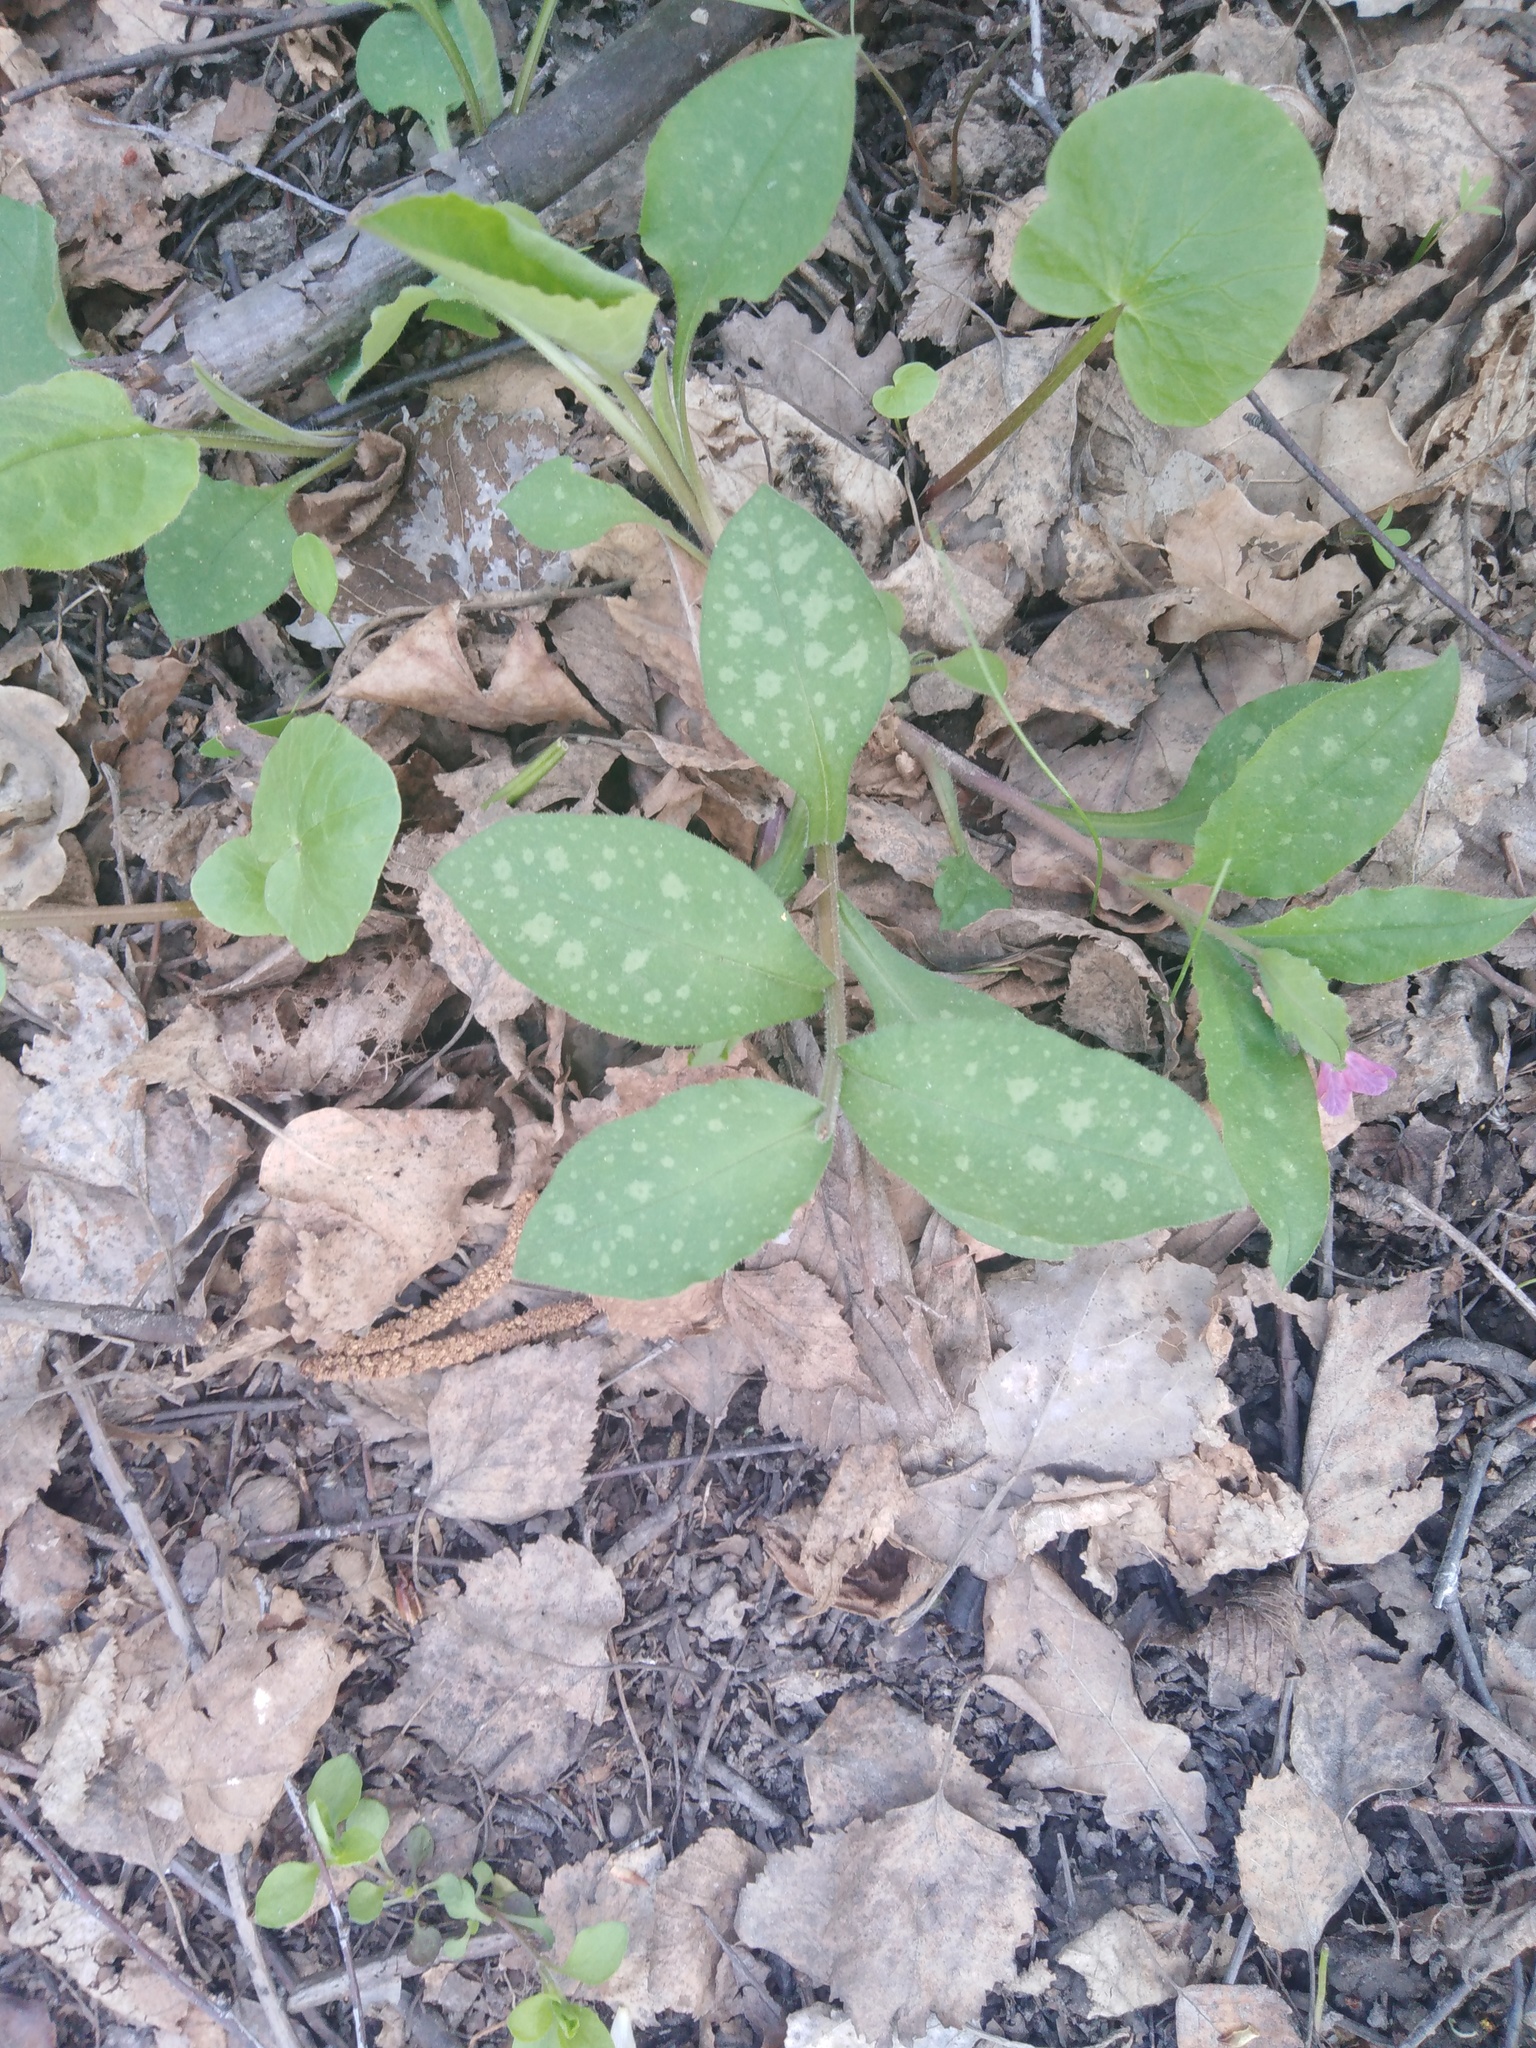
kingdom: Plantae
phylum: Tracheophyta
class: Magnoliopsida
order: Boraginales
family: Boraginaceae
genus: Pulmonaria
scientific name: Pulmonaria obscura
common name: Suffolk lungwort
